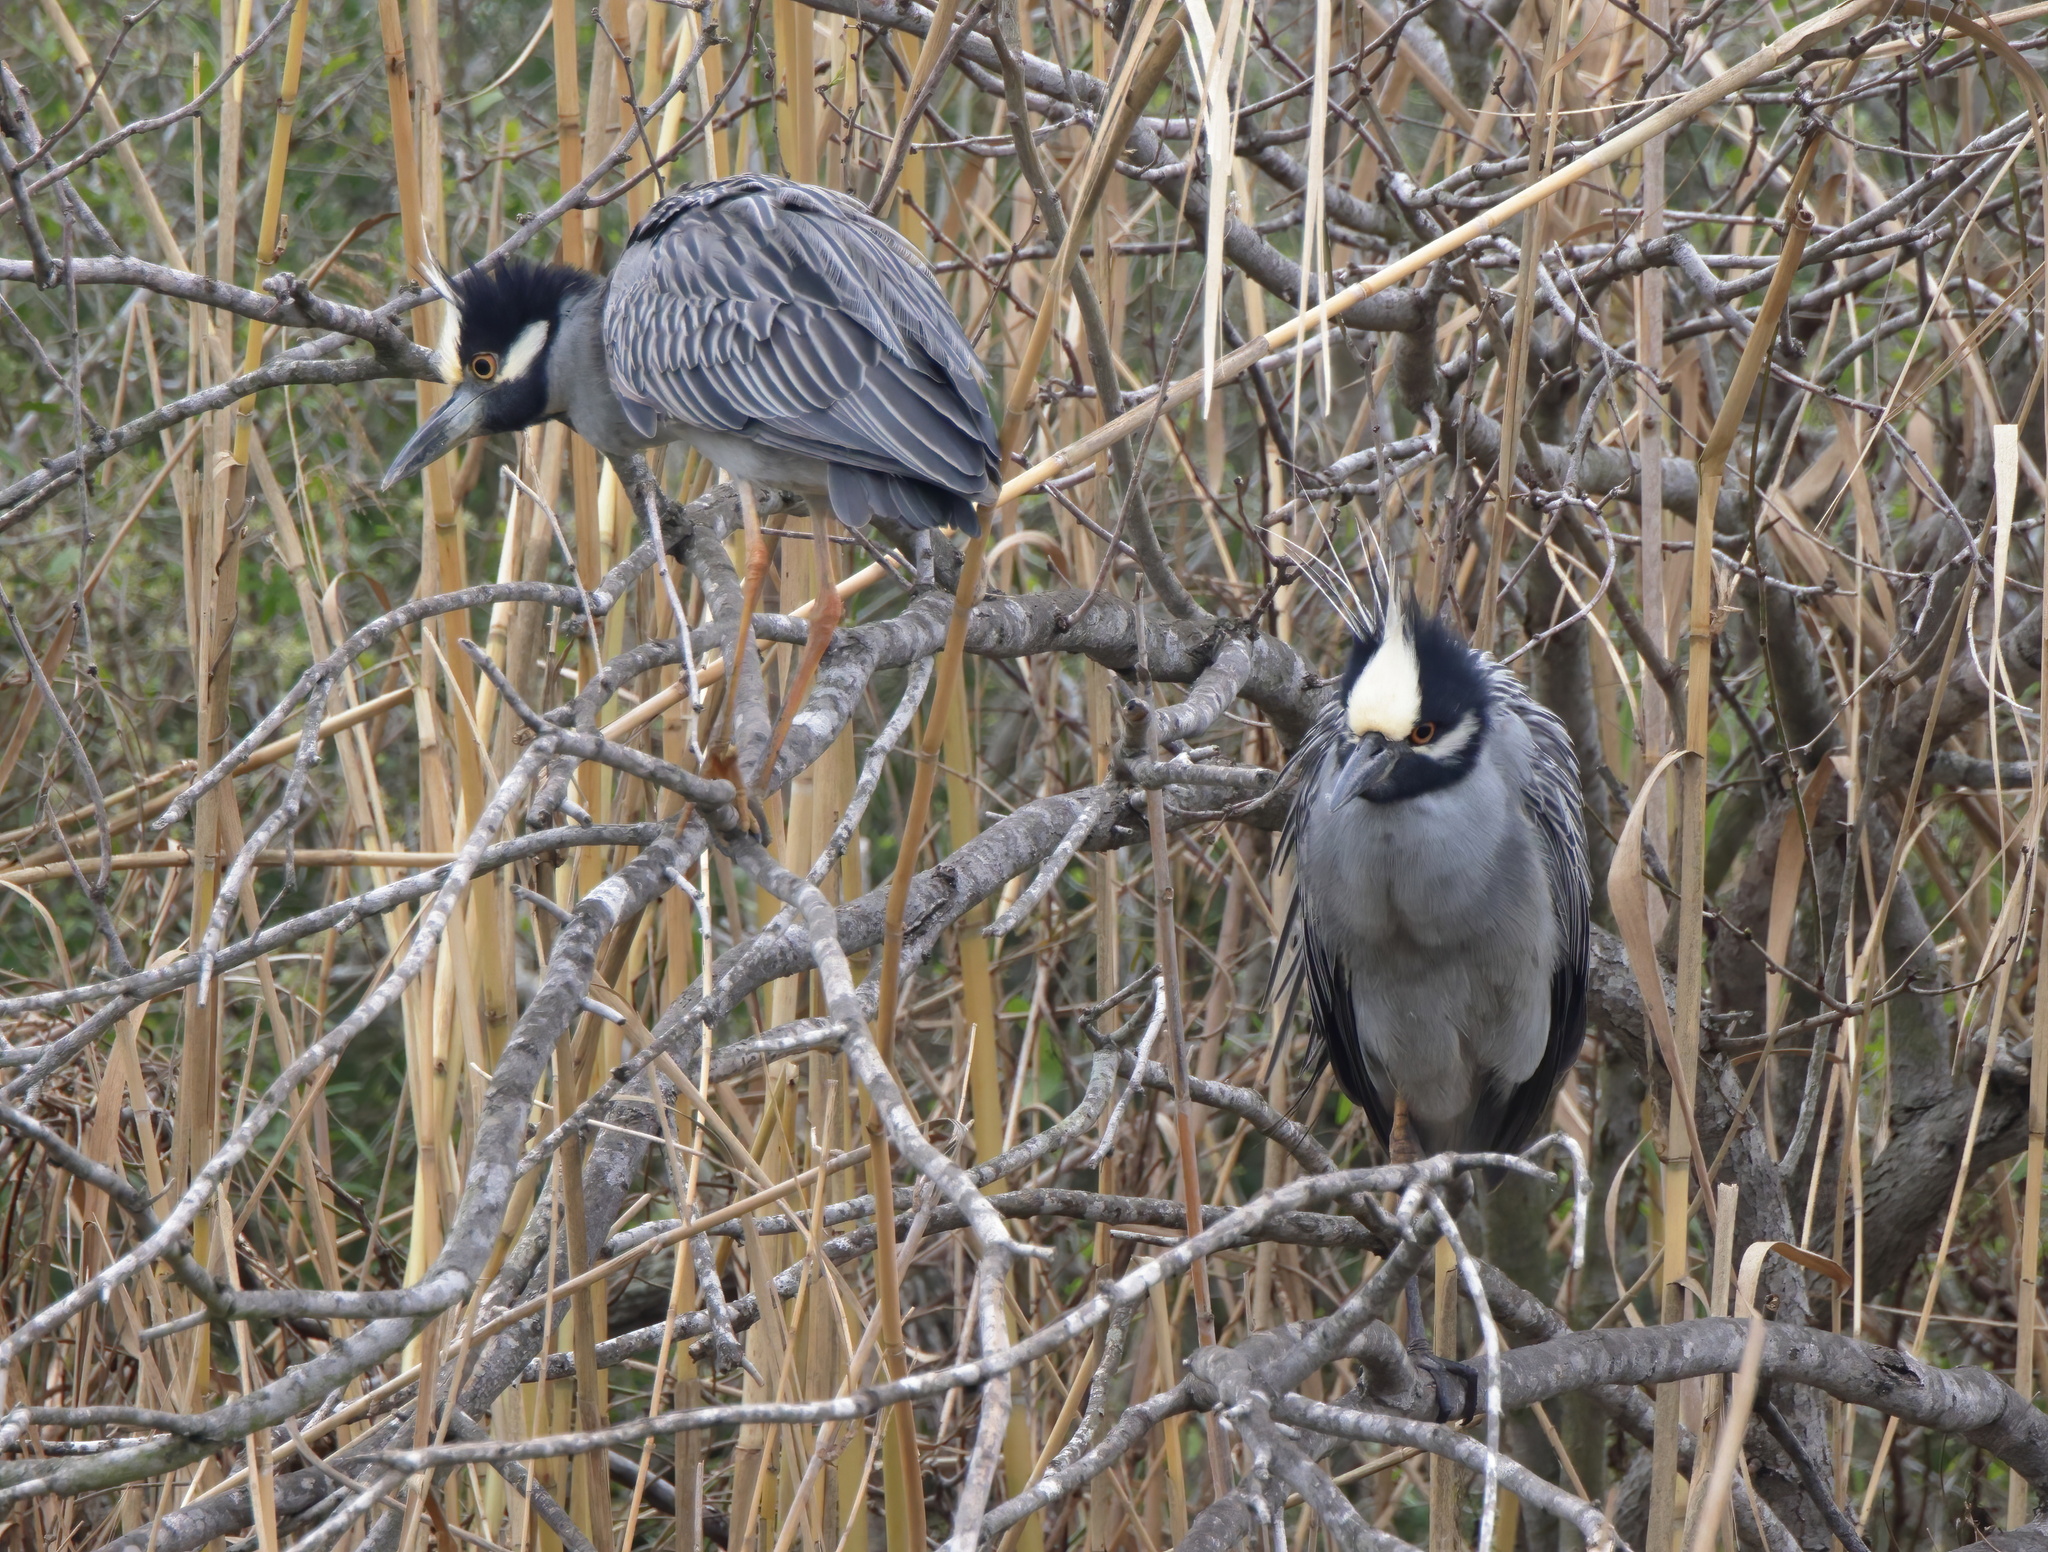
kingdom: Animalia
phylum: Chordata
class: Aves
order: Pelecaniformes
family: Ardeidae
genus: Nyctanassa
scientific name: Nyctanassa violacea
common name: Yellow-crowned night heron
